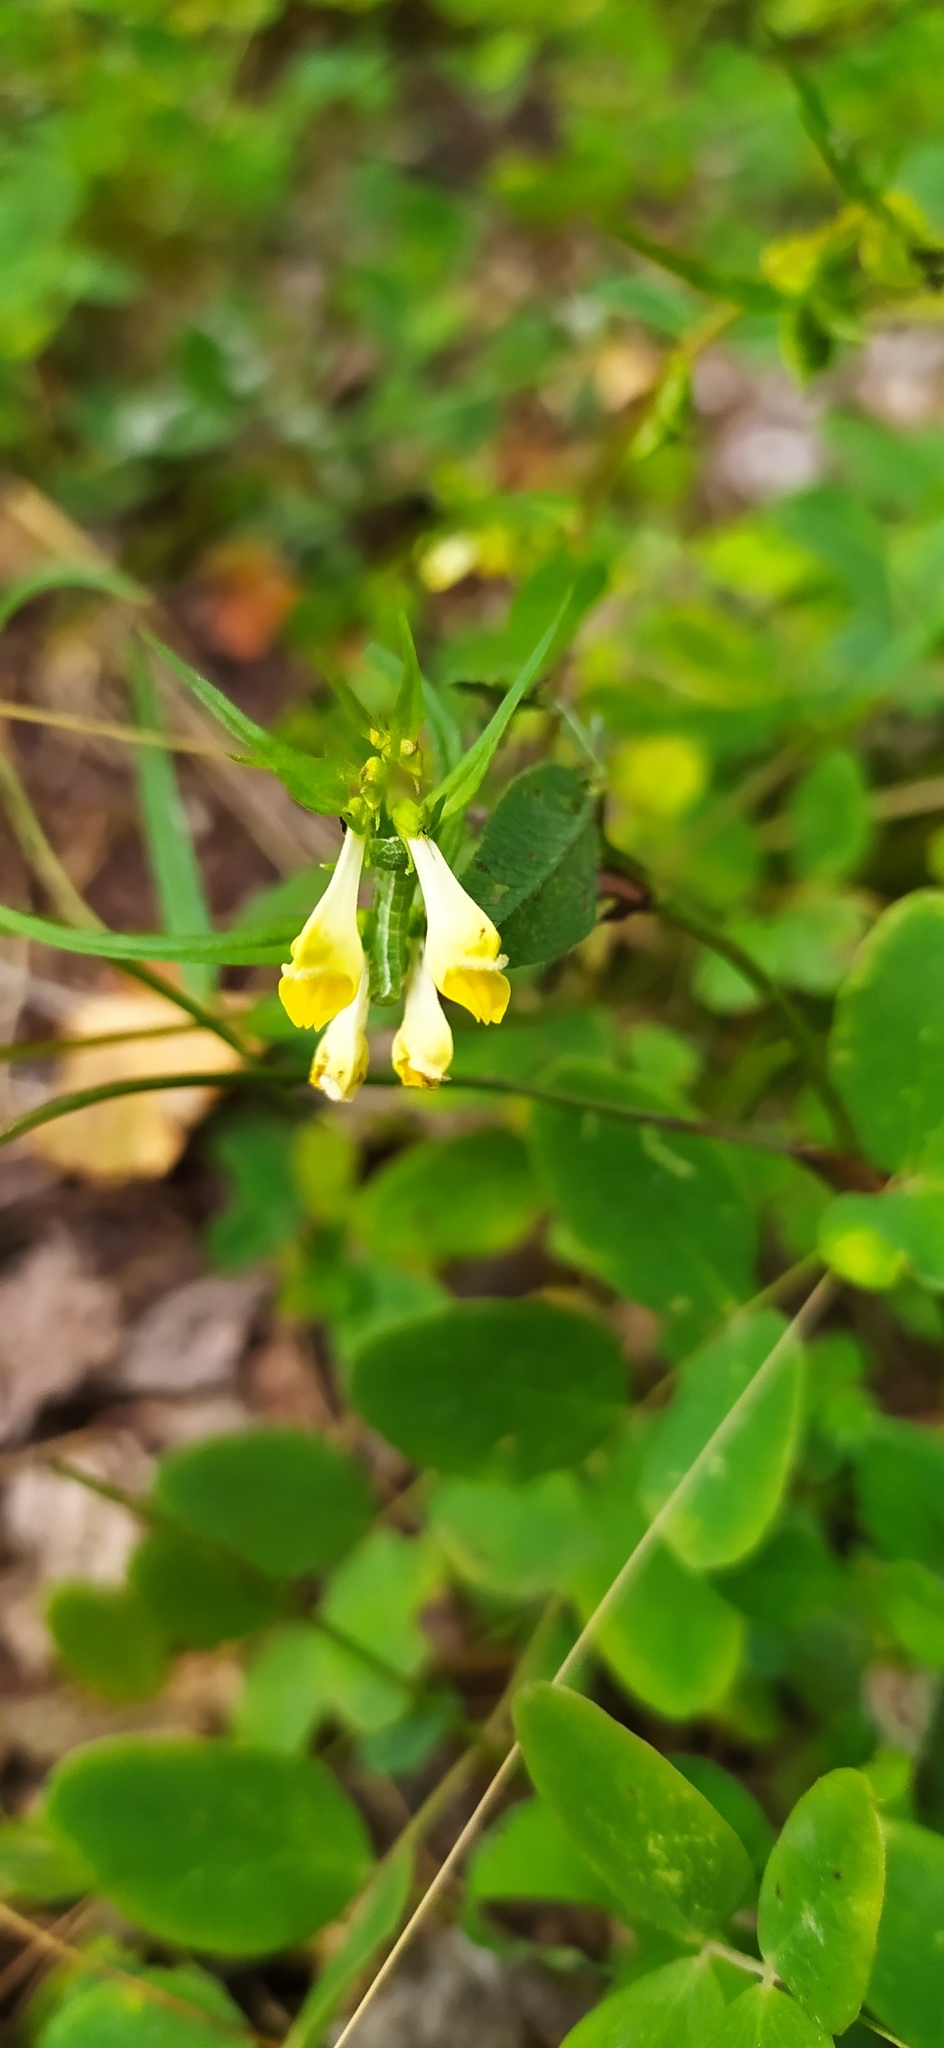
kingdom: Plantae
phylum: Tracheophyta
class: Magnoliopsida
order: Lamiales
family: Orobanchaceae
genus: Melampyrum
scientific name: Melampyrum pratense
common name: Common cow-wheat
